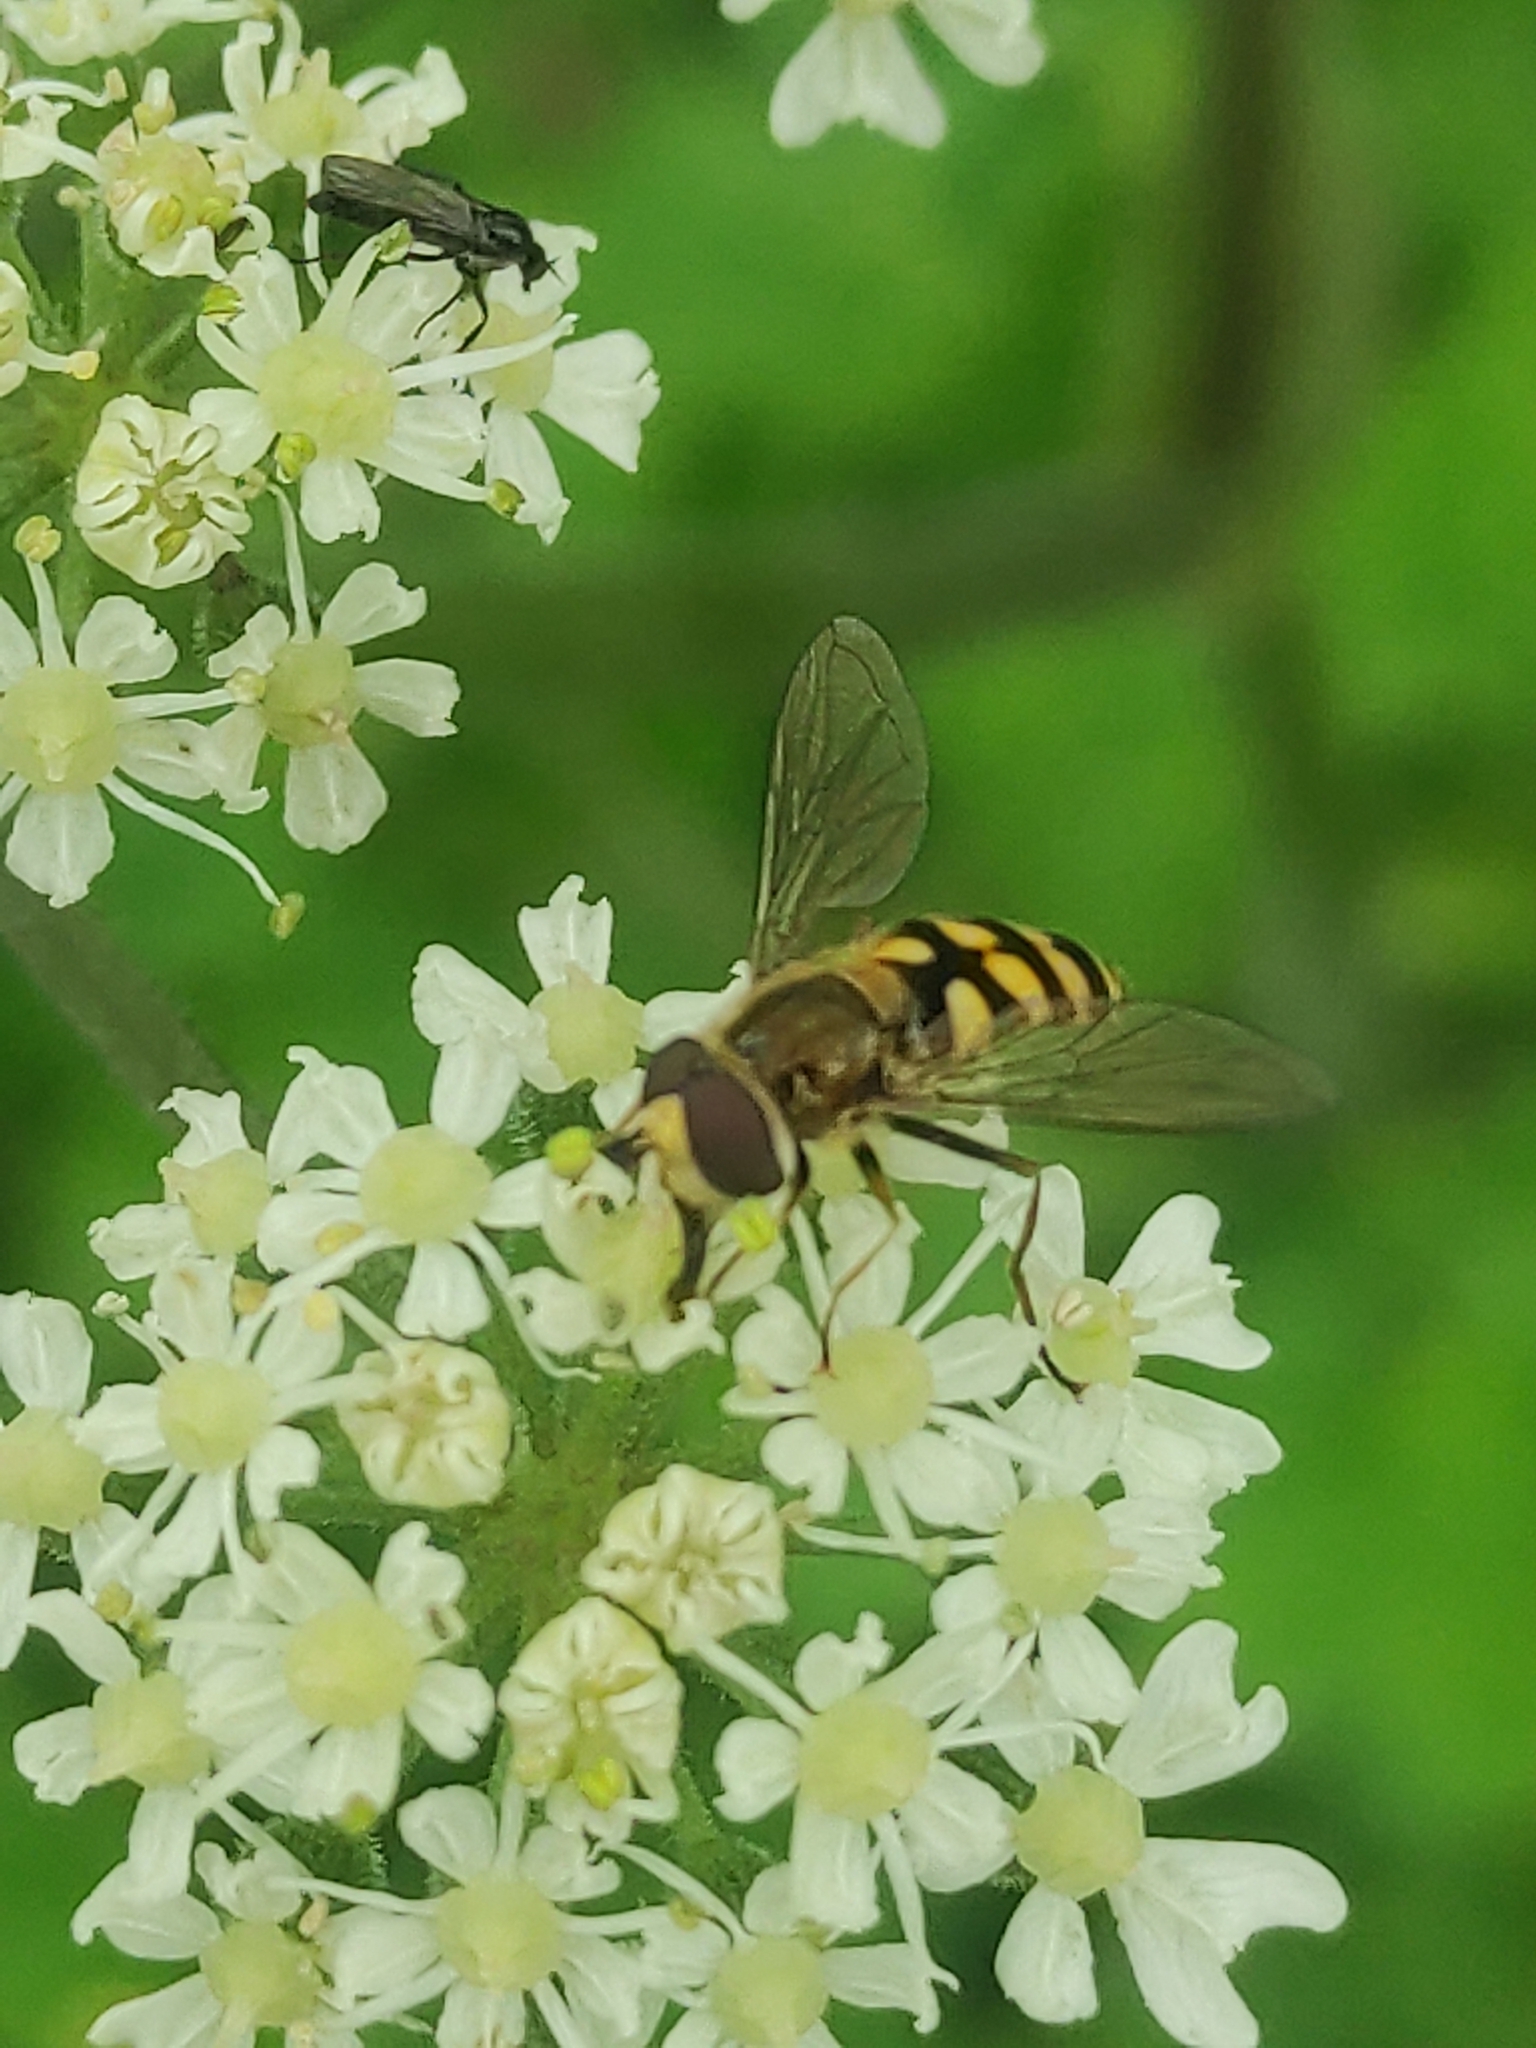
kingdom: Animalia
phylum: Arthropoda
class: Insecta
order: Diptera
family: Syrphidae
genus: Eupeodes
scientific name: Eupeodes
